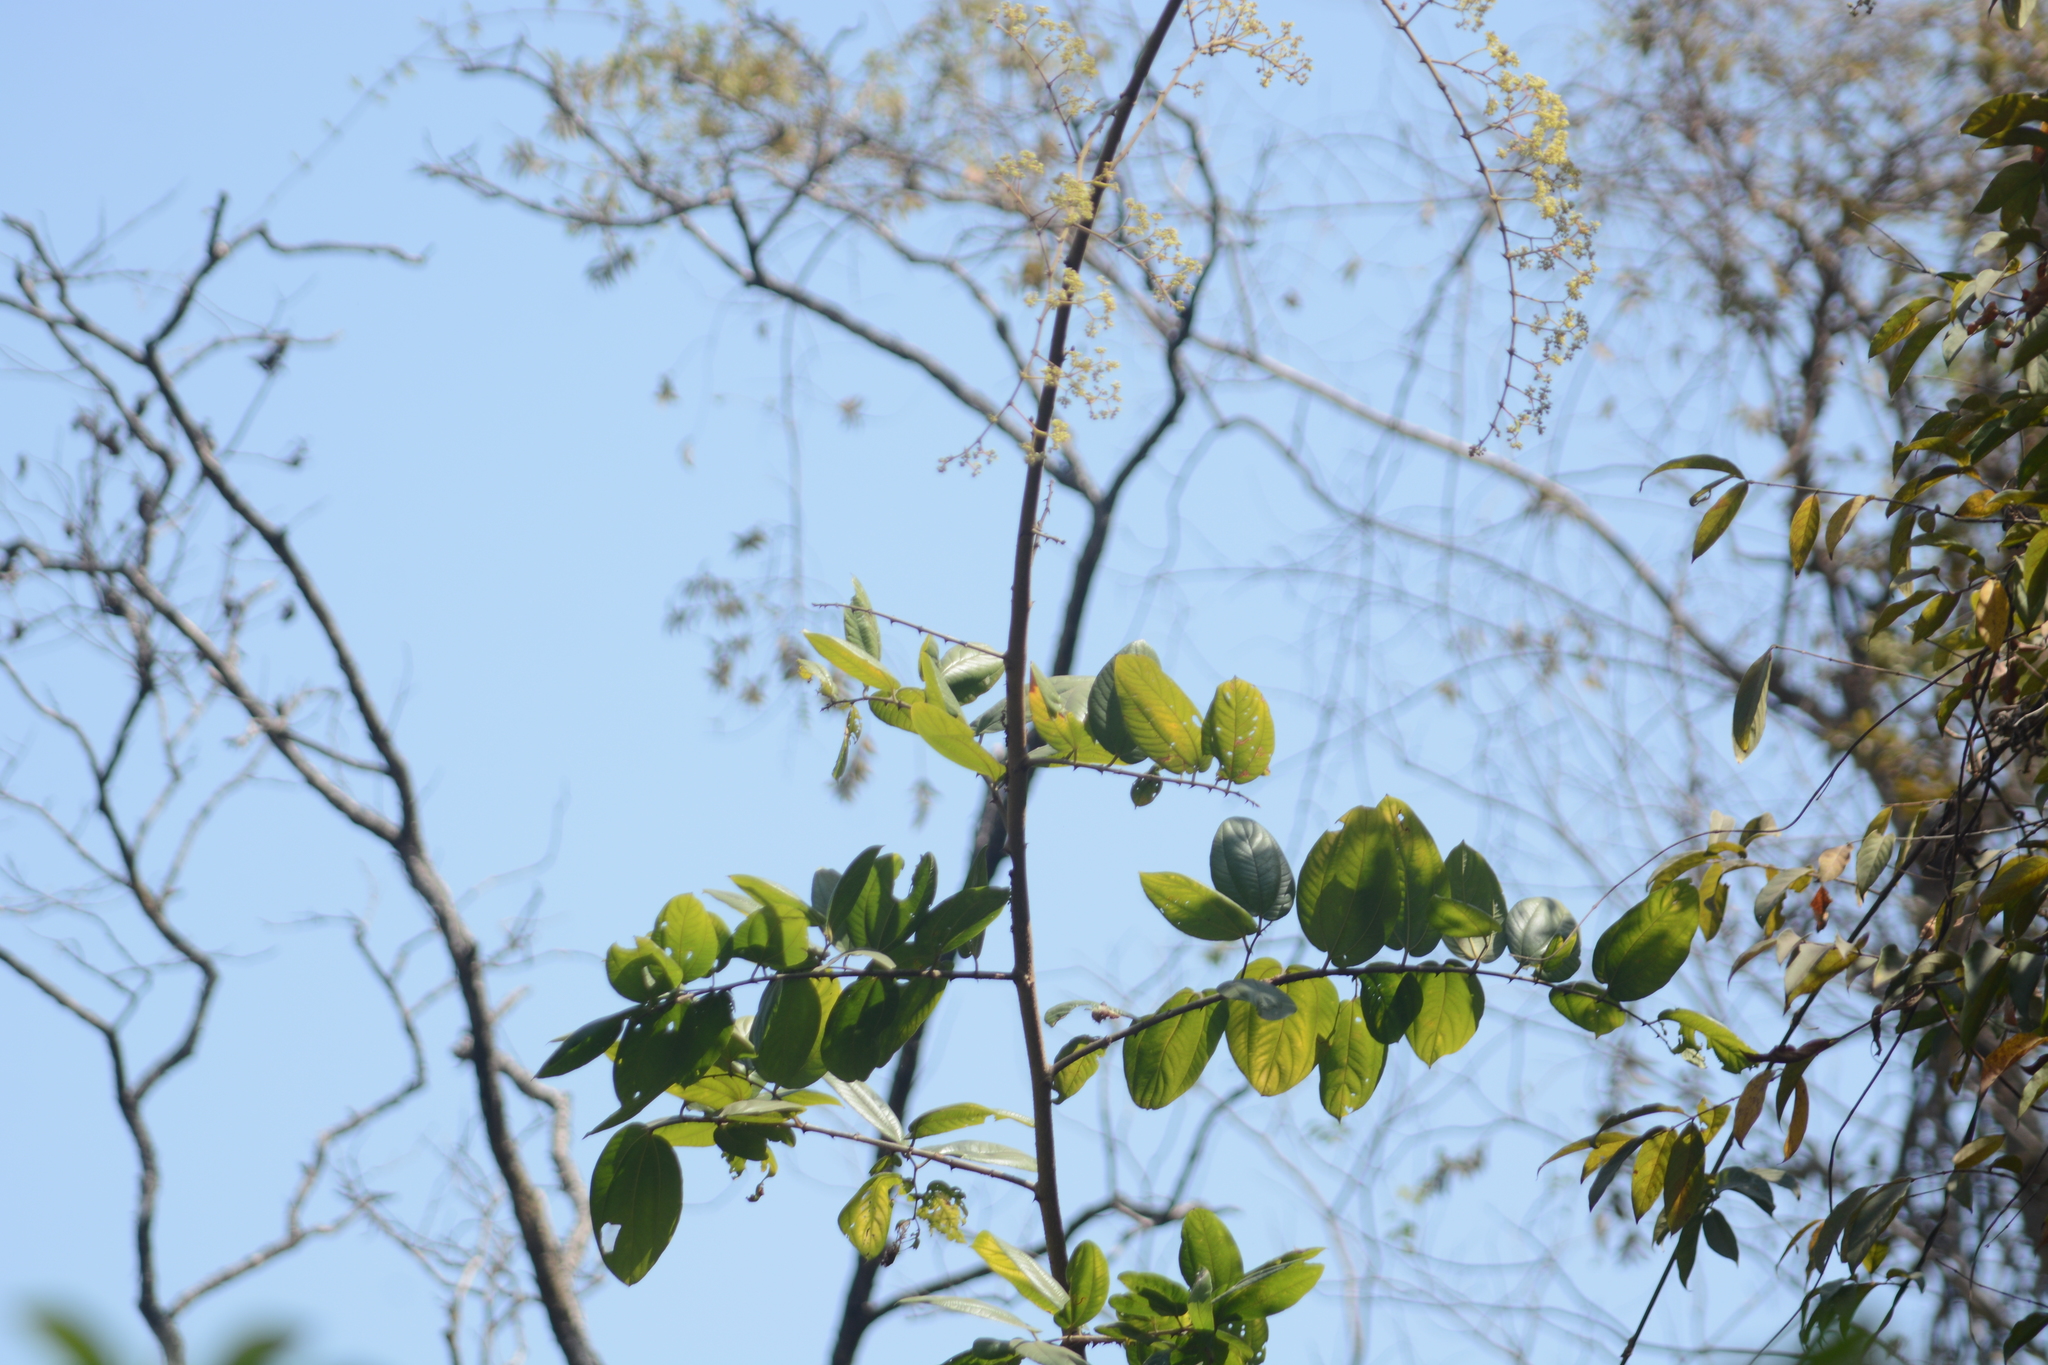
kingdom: Plantae
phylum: Tracheophyta
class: Magnoliopsida
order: Rosales
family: Rhamnaceae
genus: Ziziphus
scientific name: Ziziphus rugosa
